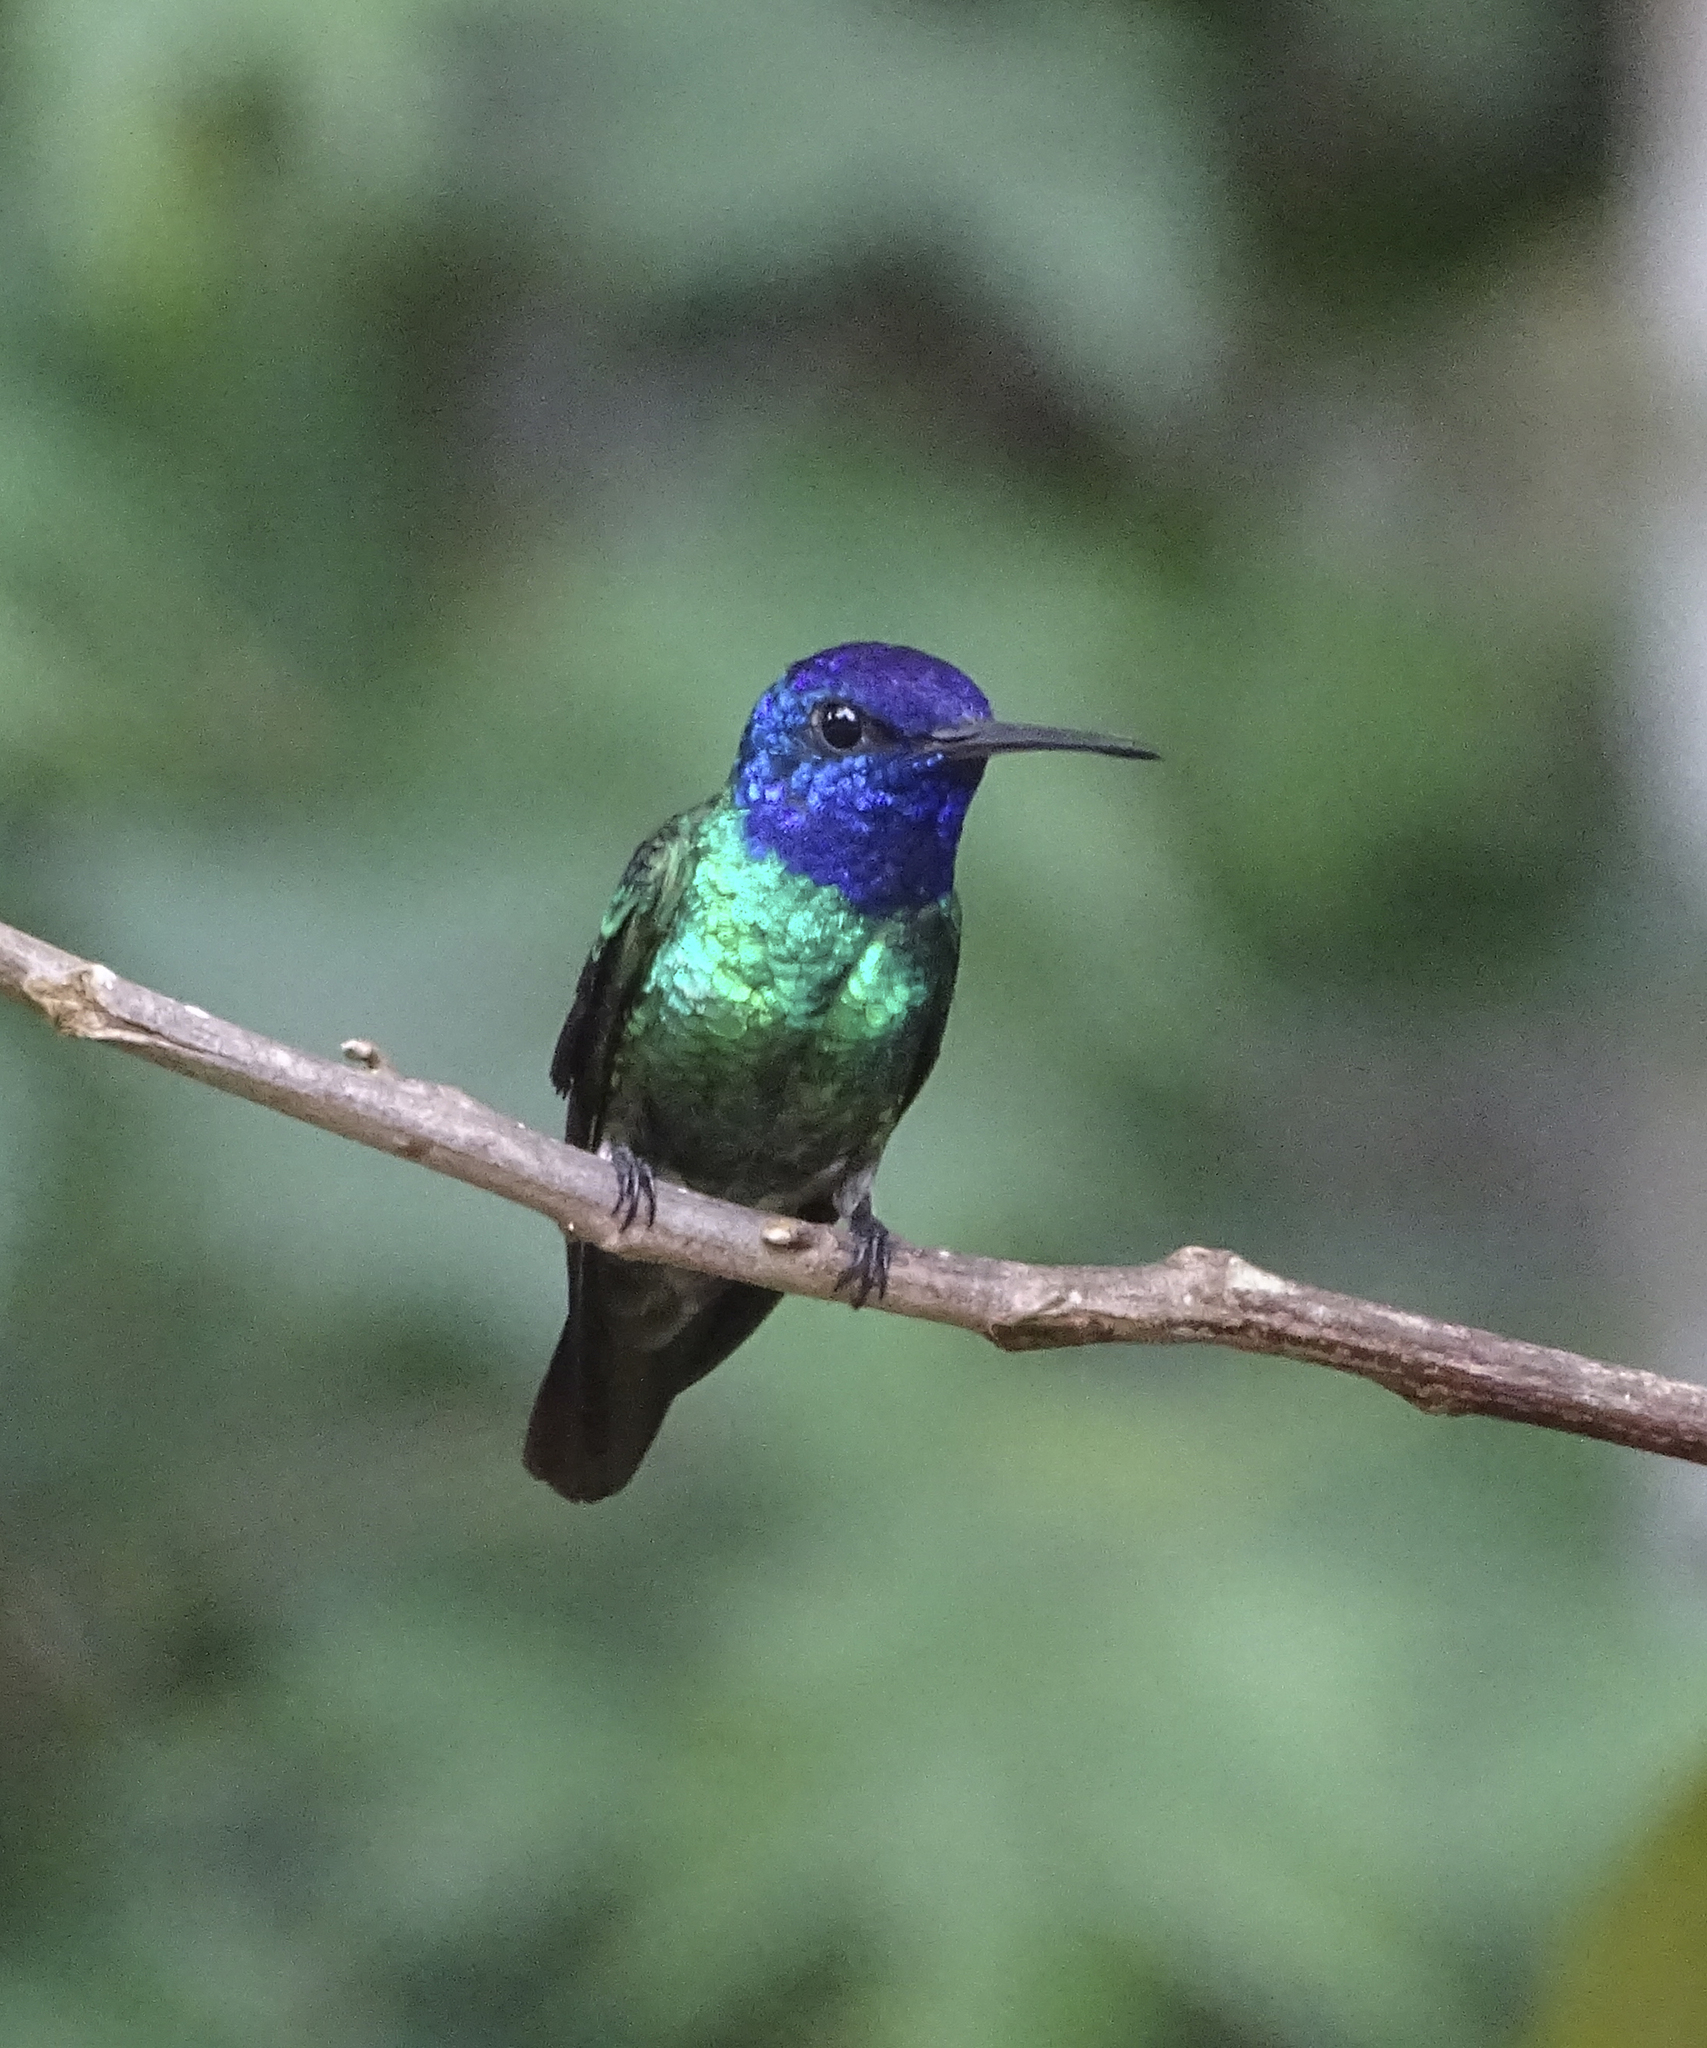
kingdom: Animalia
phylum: Chordata
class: Aves
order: Apodiformes
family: Trochilidae
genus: Chrysuronia
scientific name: Chrysuronia oenone
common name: Golden-tailed sapphire
